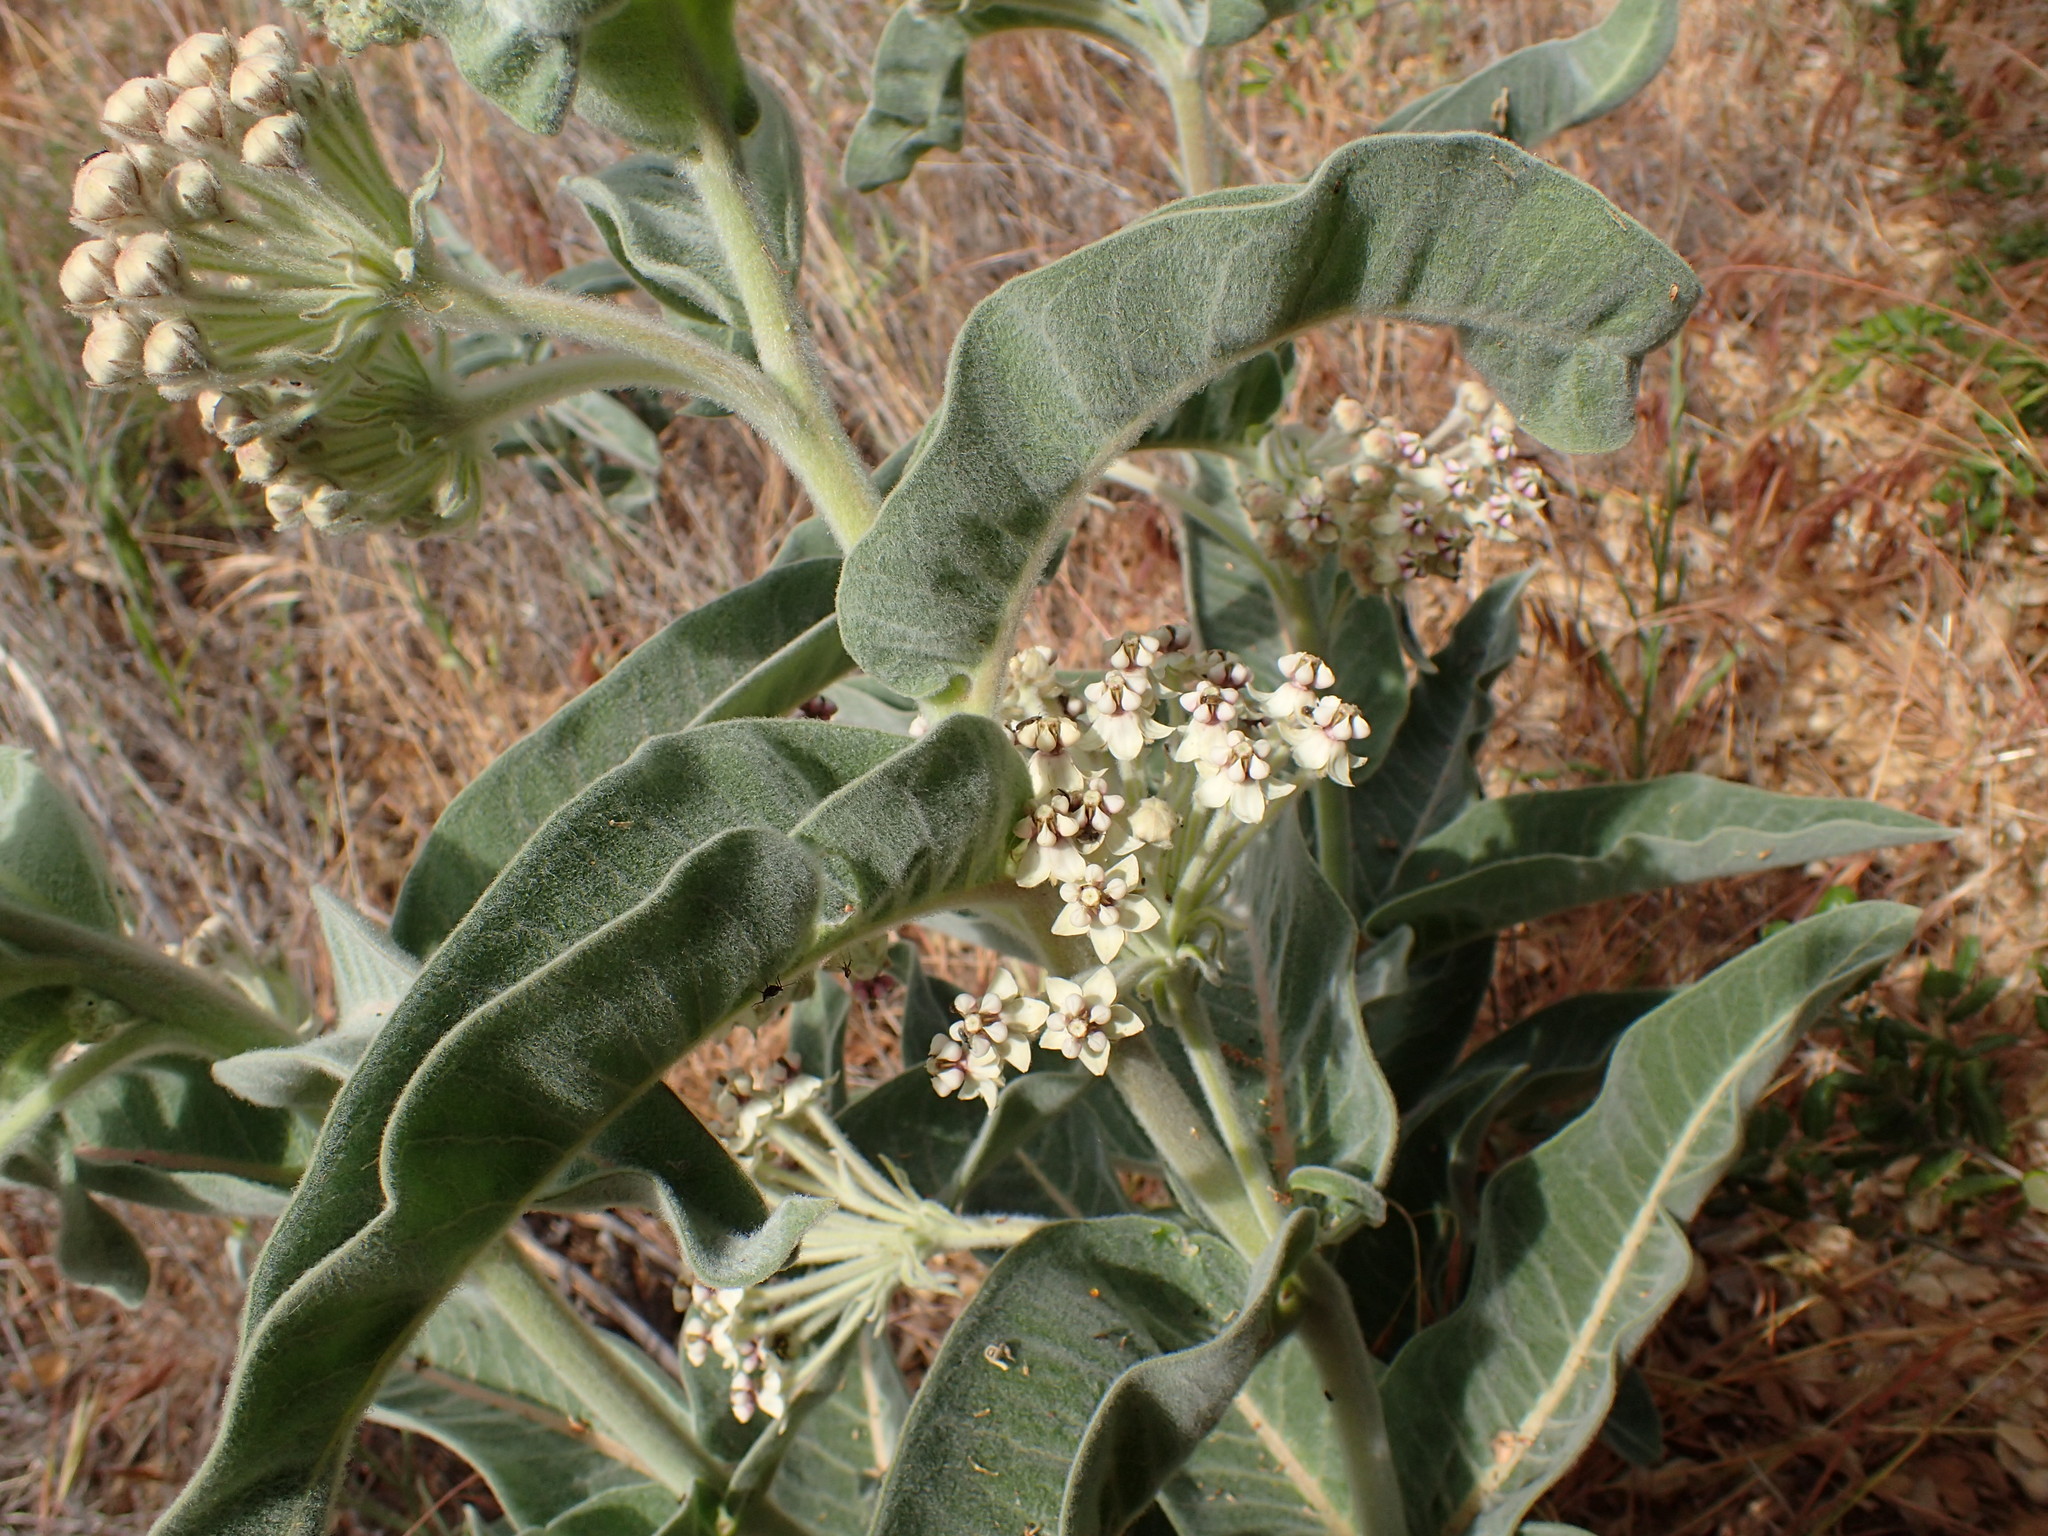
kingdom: Plantae
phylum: Tracheophyta
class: Magnoliopsida
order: Gentianales
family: Apocynaceae
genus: Asclepias
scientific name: Asclepias eriocarpa
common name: Indian milkweed
